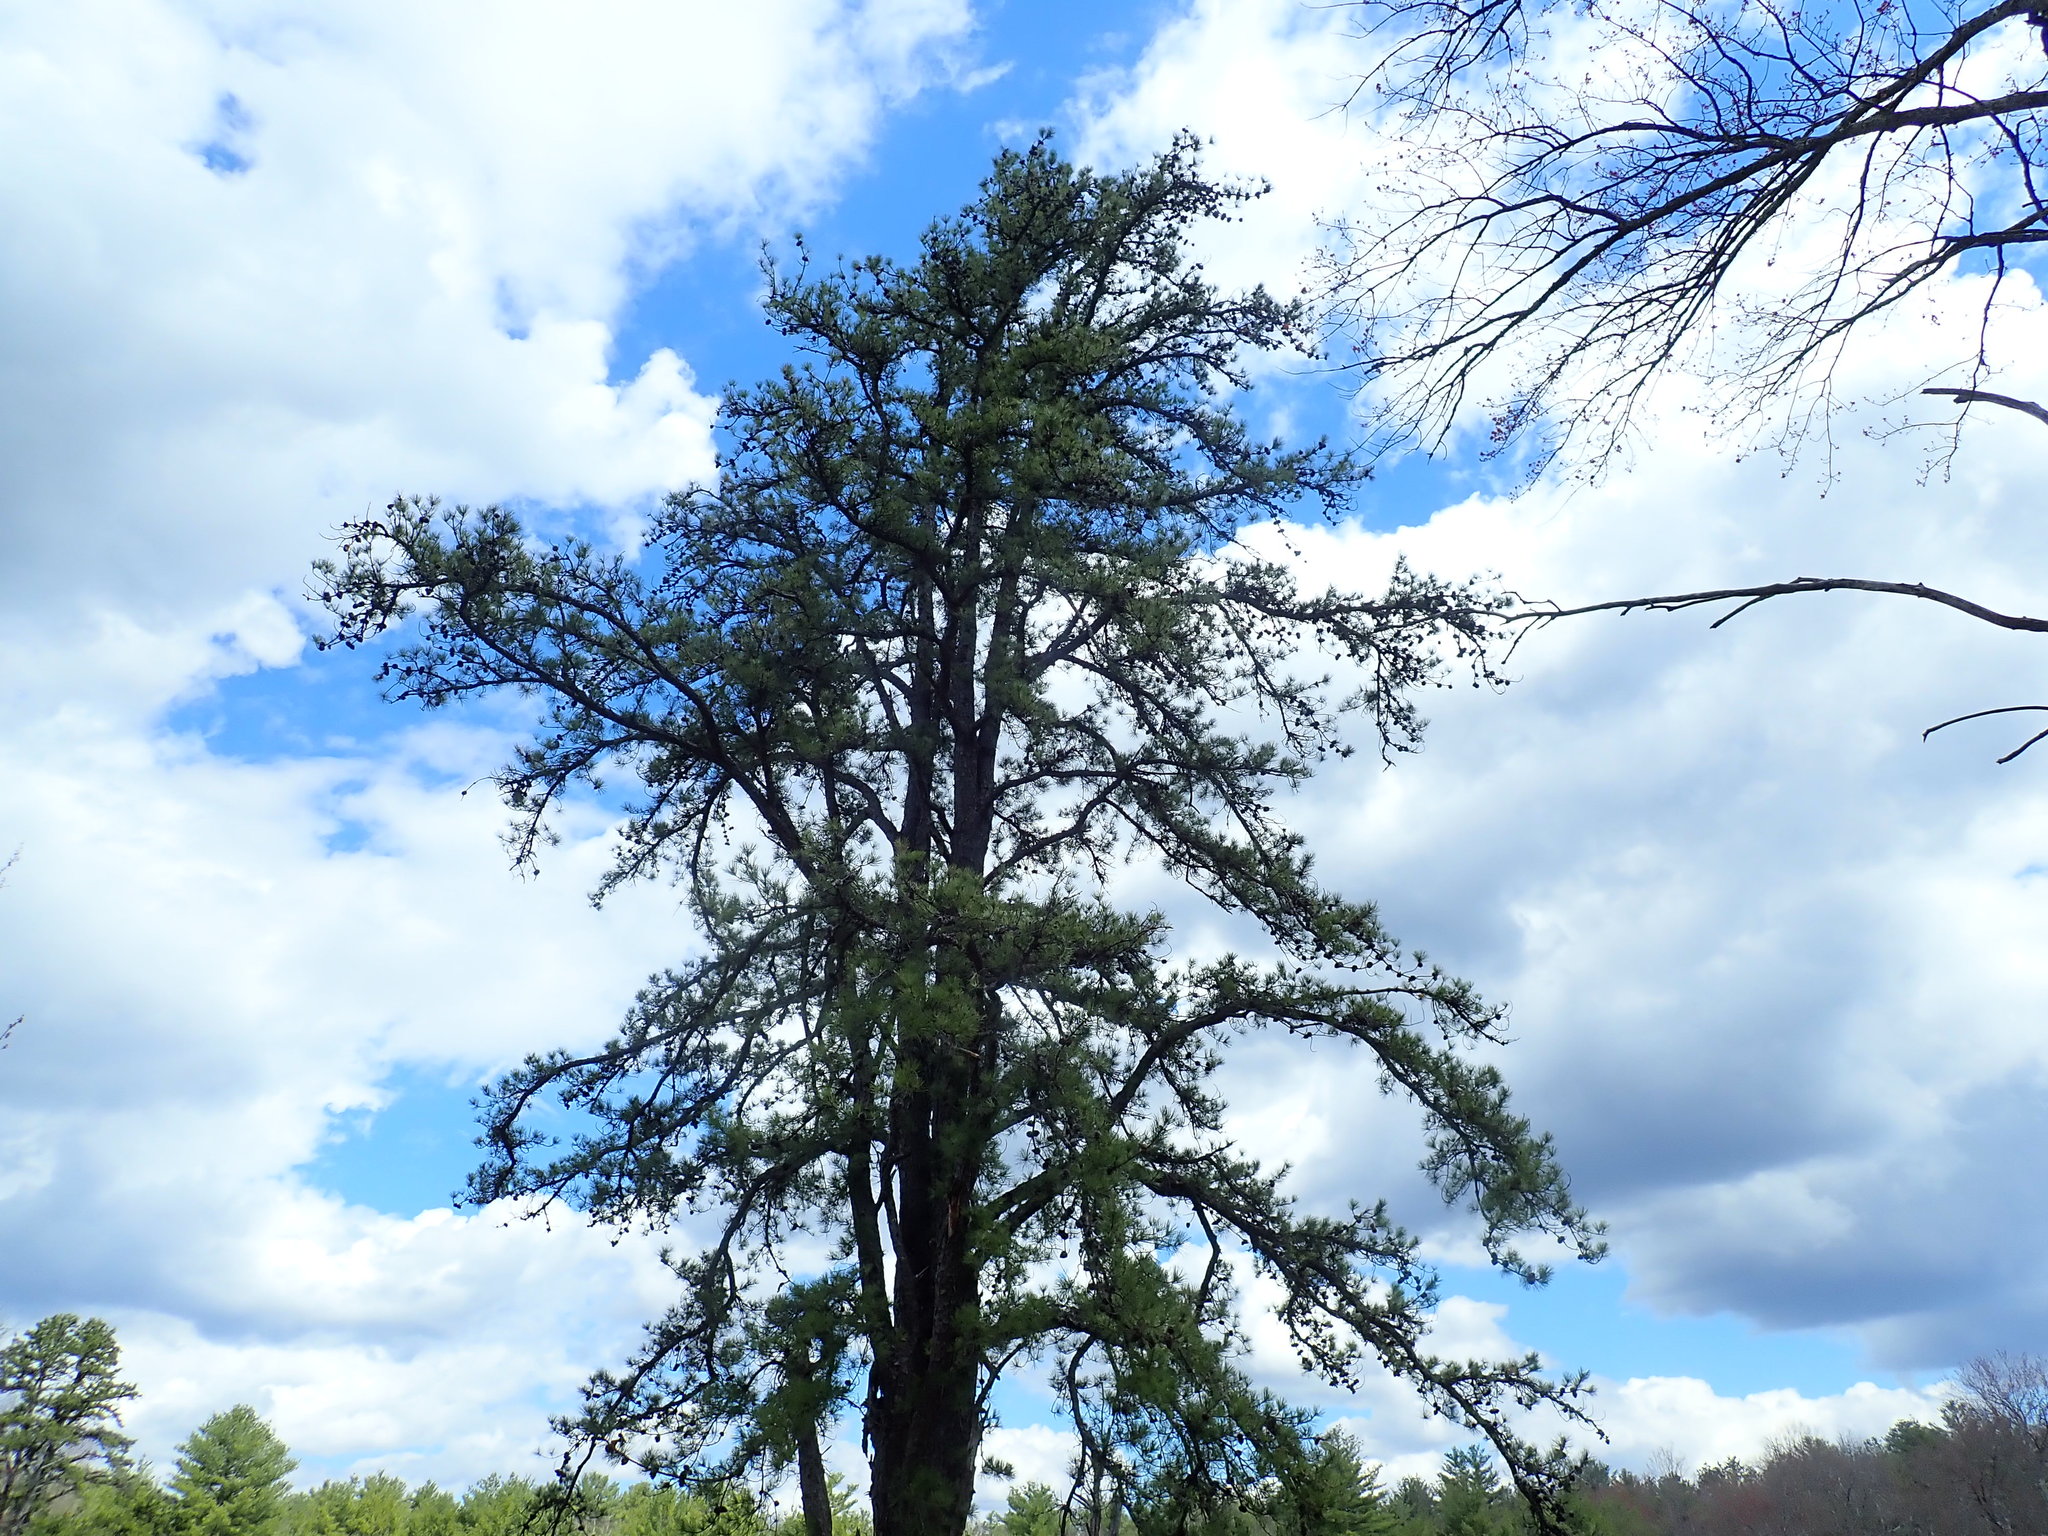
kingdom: Plantae
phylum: Tracheophyta
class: Pinopsida
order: Pinales
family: Pinaceae
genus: Pinus
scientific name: Pinus rigida
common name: Pitch pine
